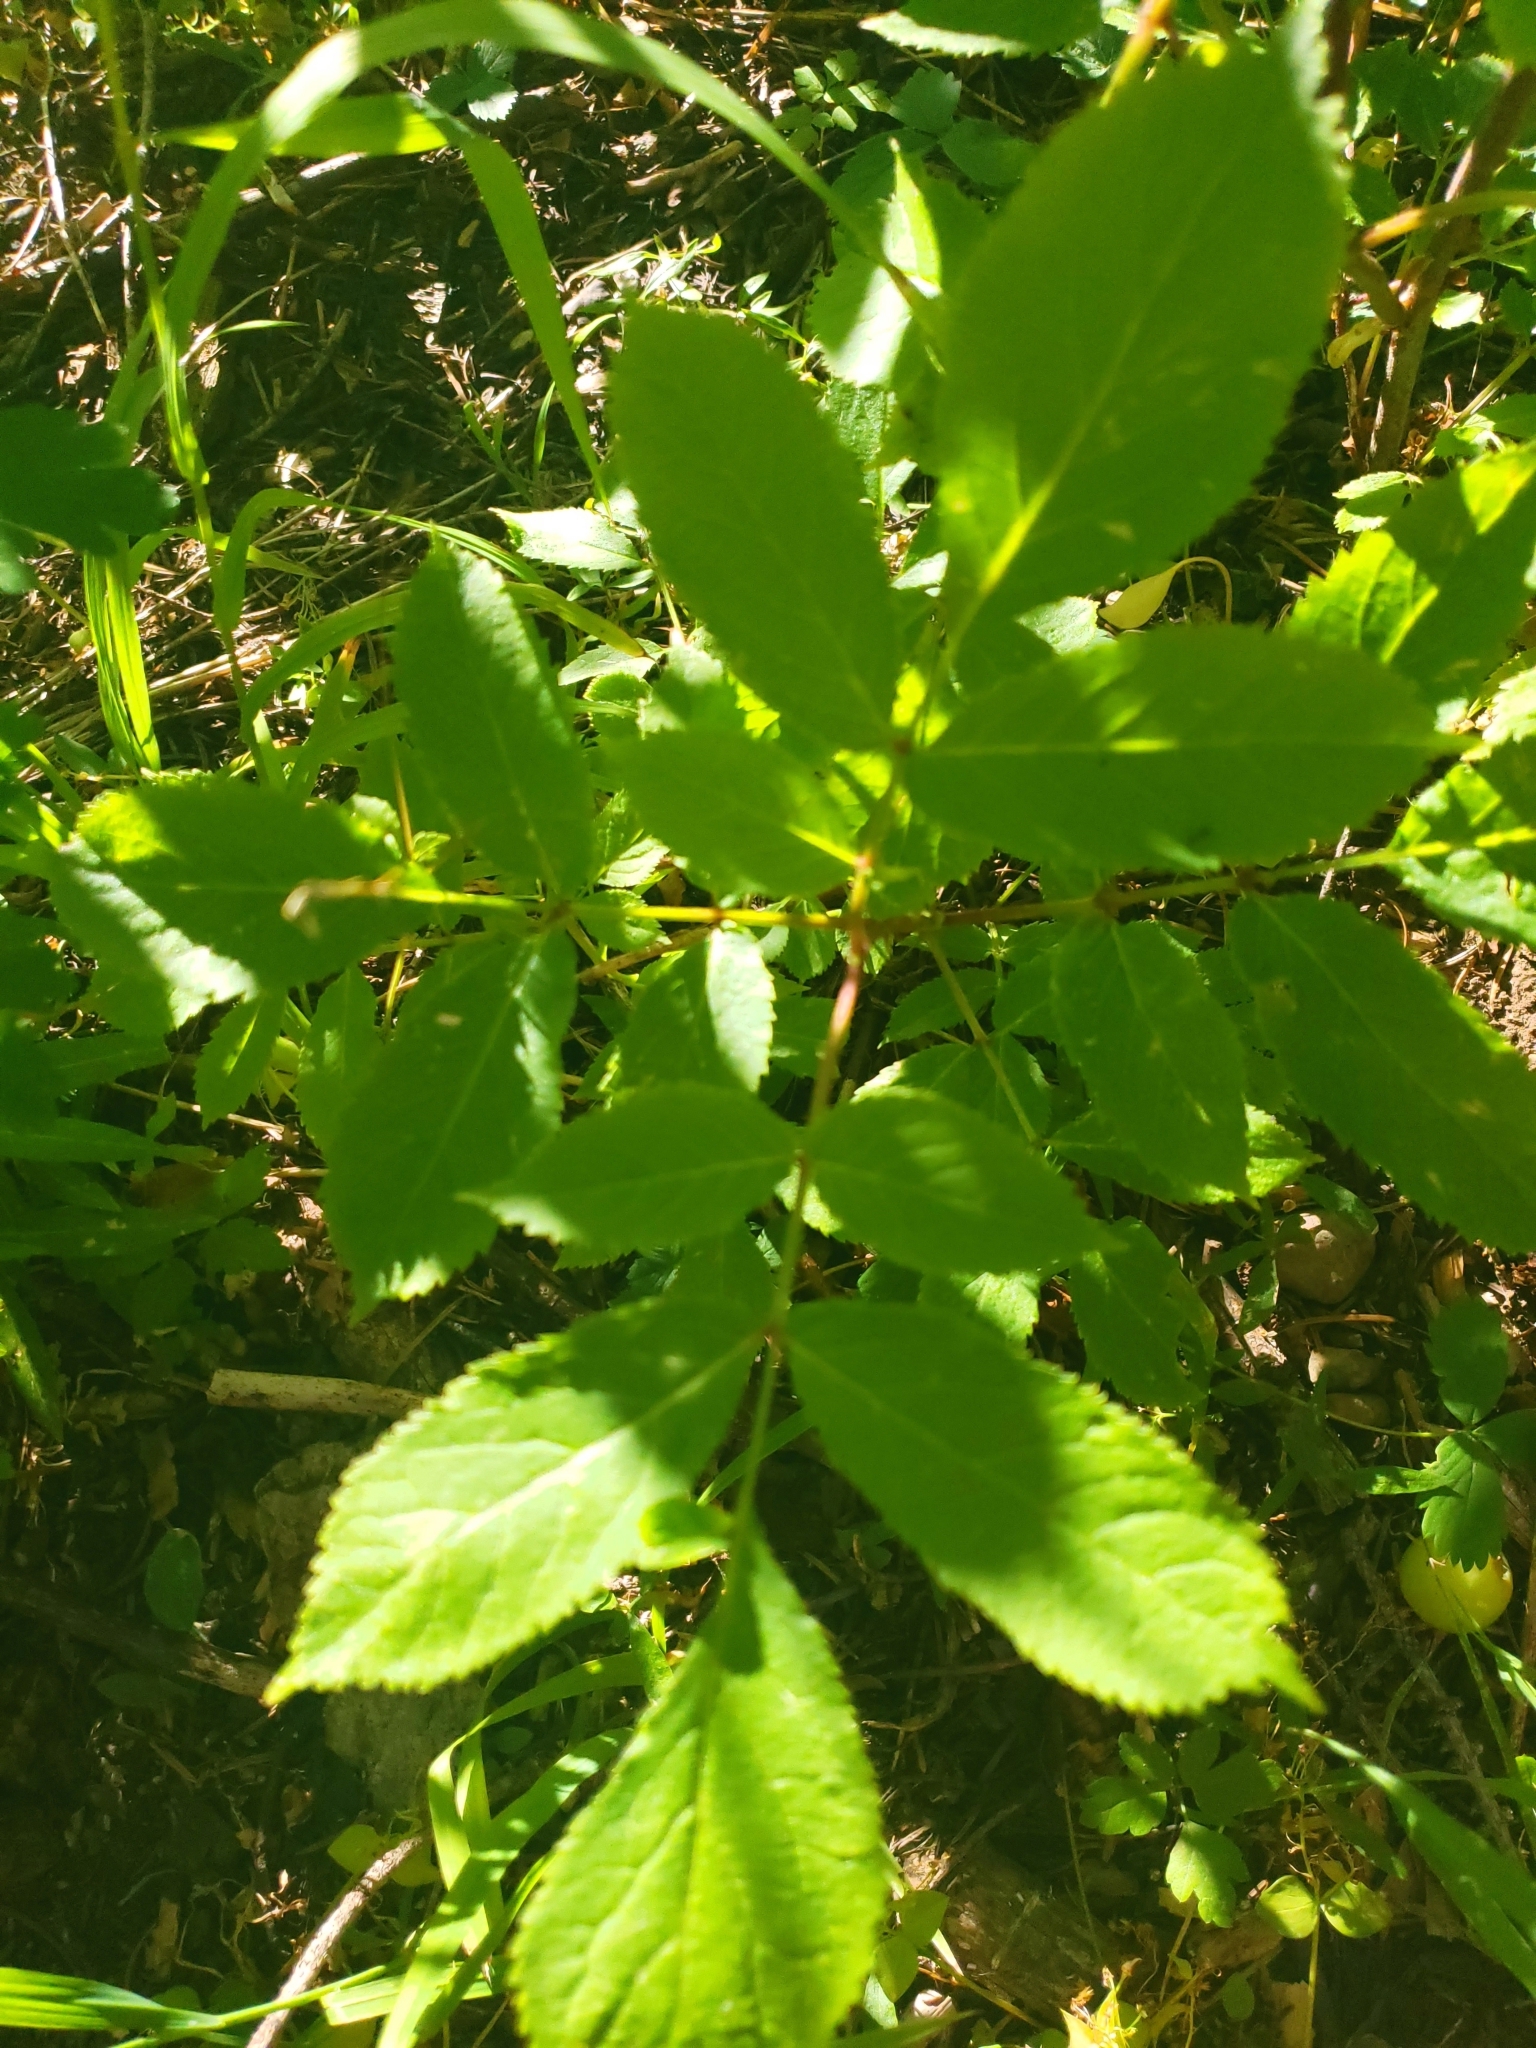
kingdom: Plantae
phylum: Tracheophyta
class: Magnoliopsida
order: Dipsacales
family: Viburnaceae
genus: Sambucus
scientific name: Sambucus racemosa
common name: Red-berried elder
